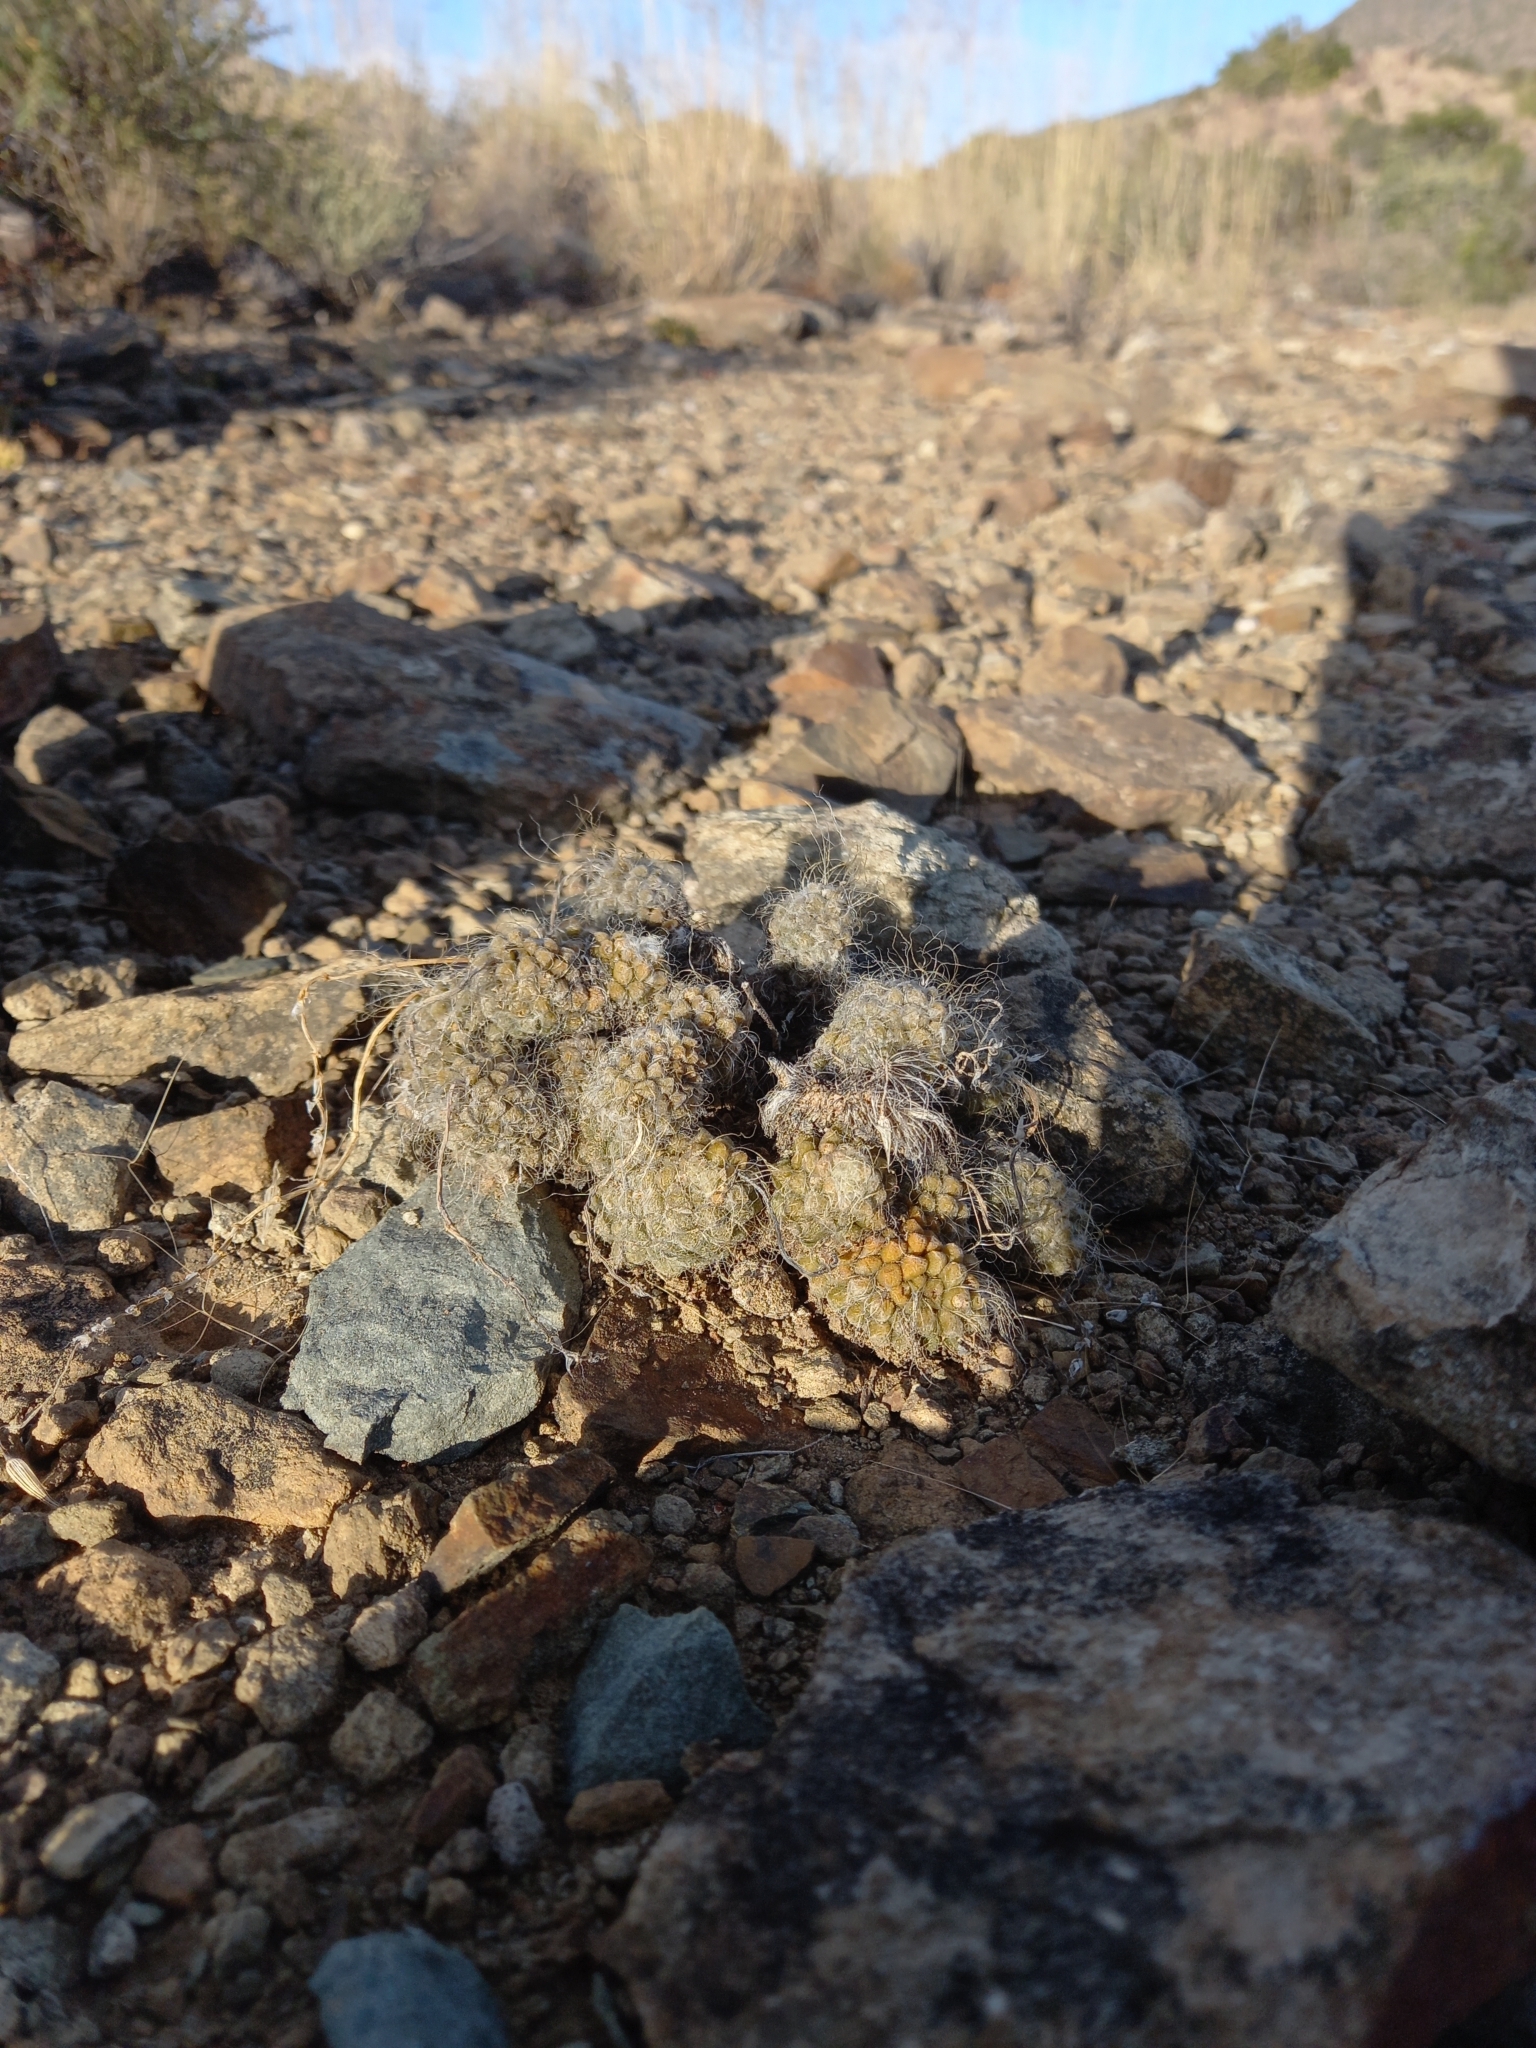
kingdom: Plantae
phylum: Tracheophyta
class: Magnoliopsida
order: Caryophyllales
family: Anacampserotaceae
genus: Anacampseros
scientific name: Anacampseros filamentosa
